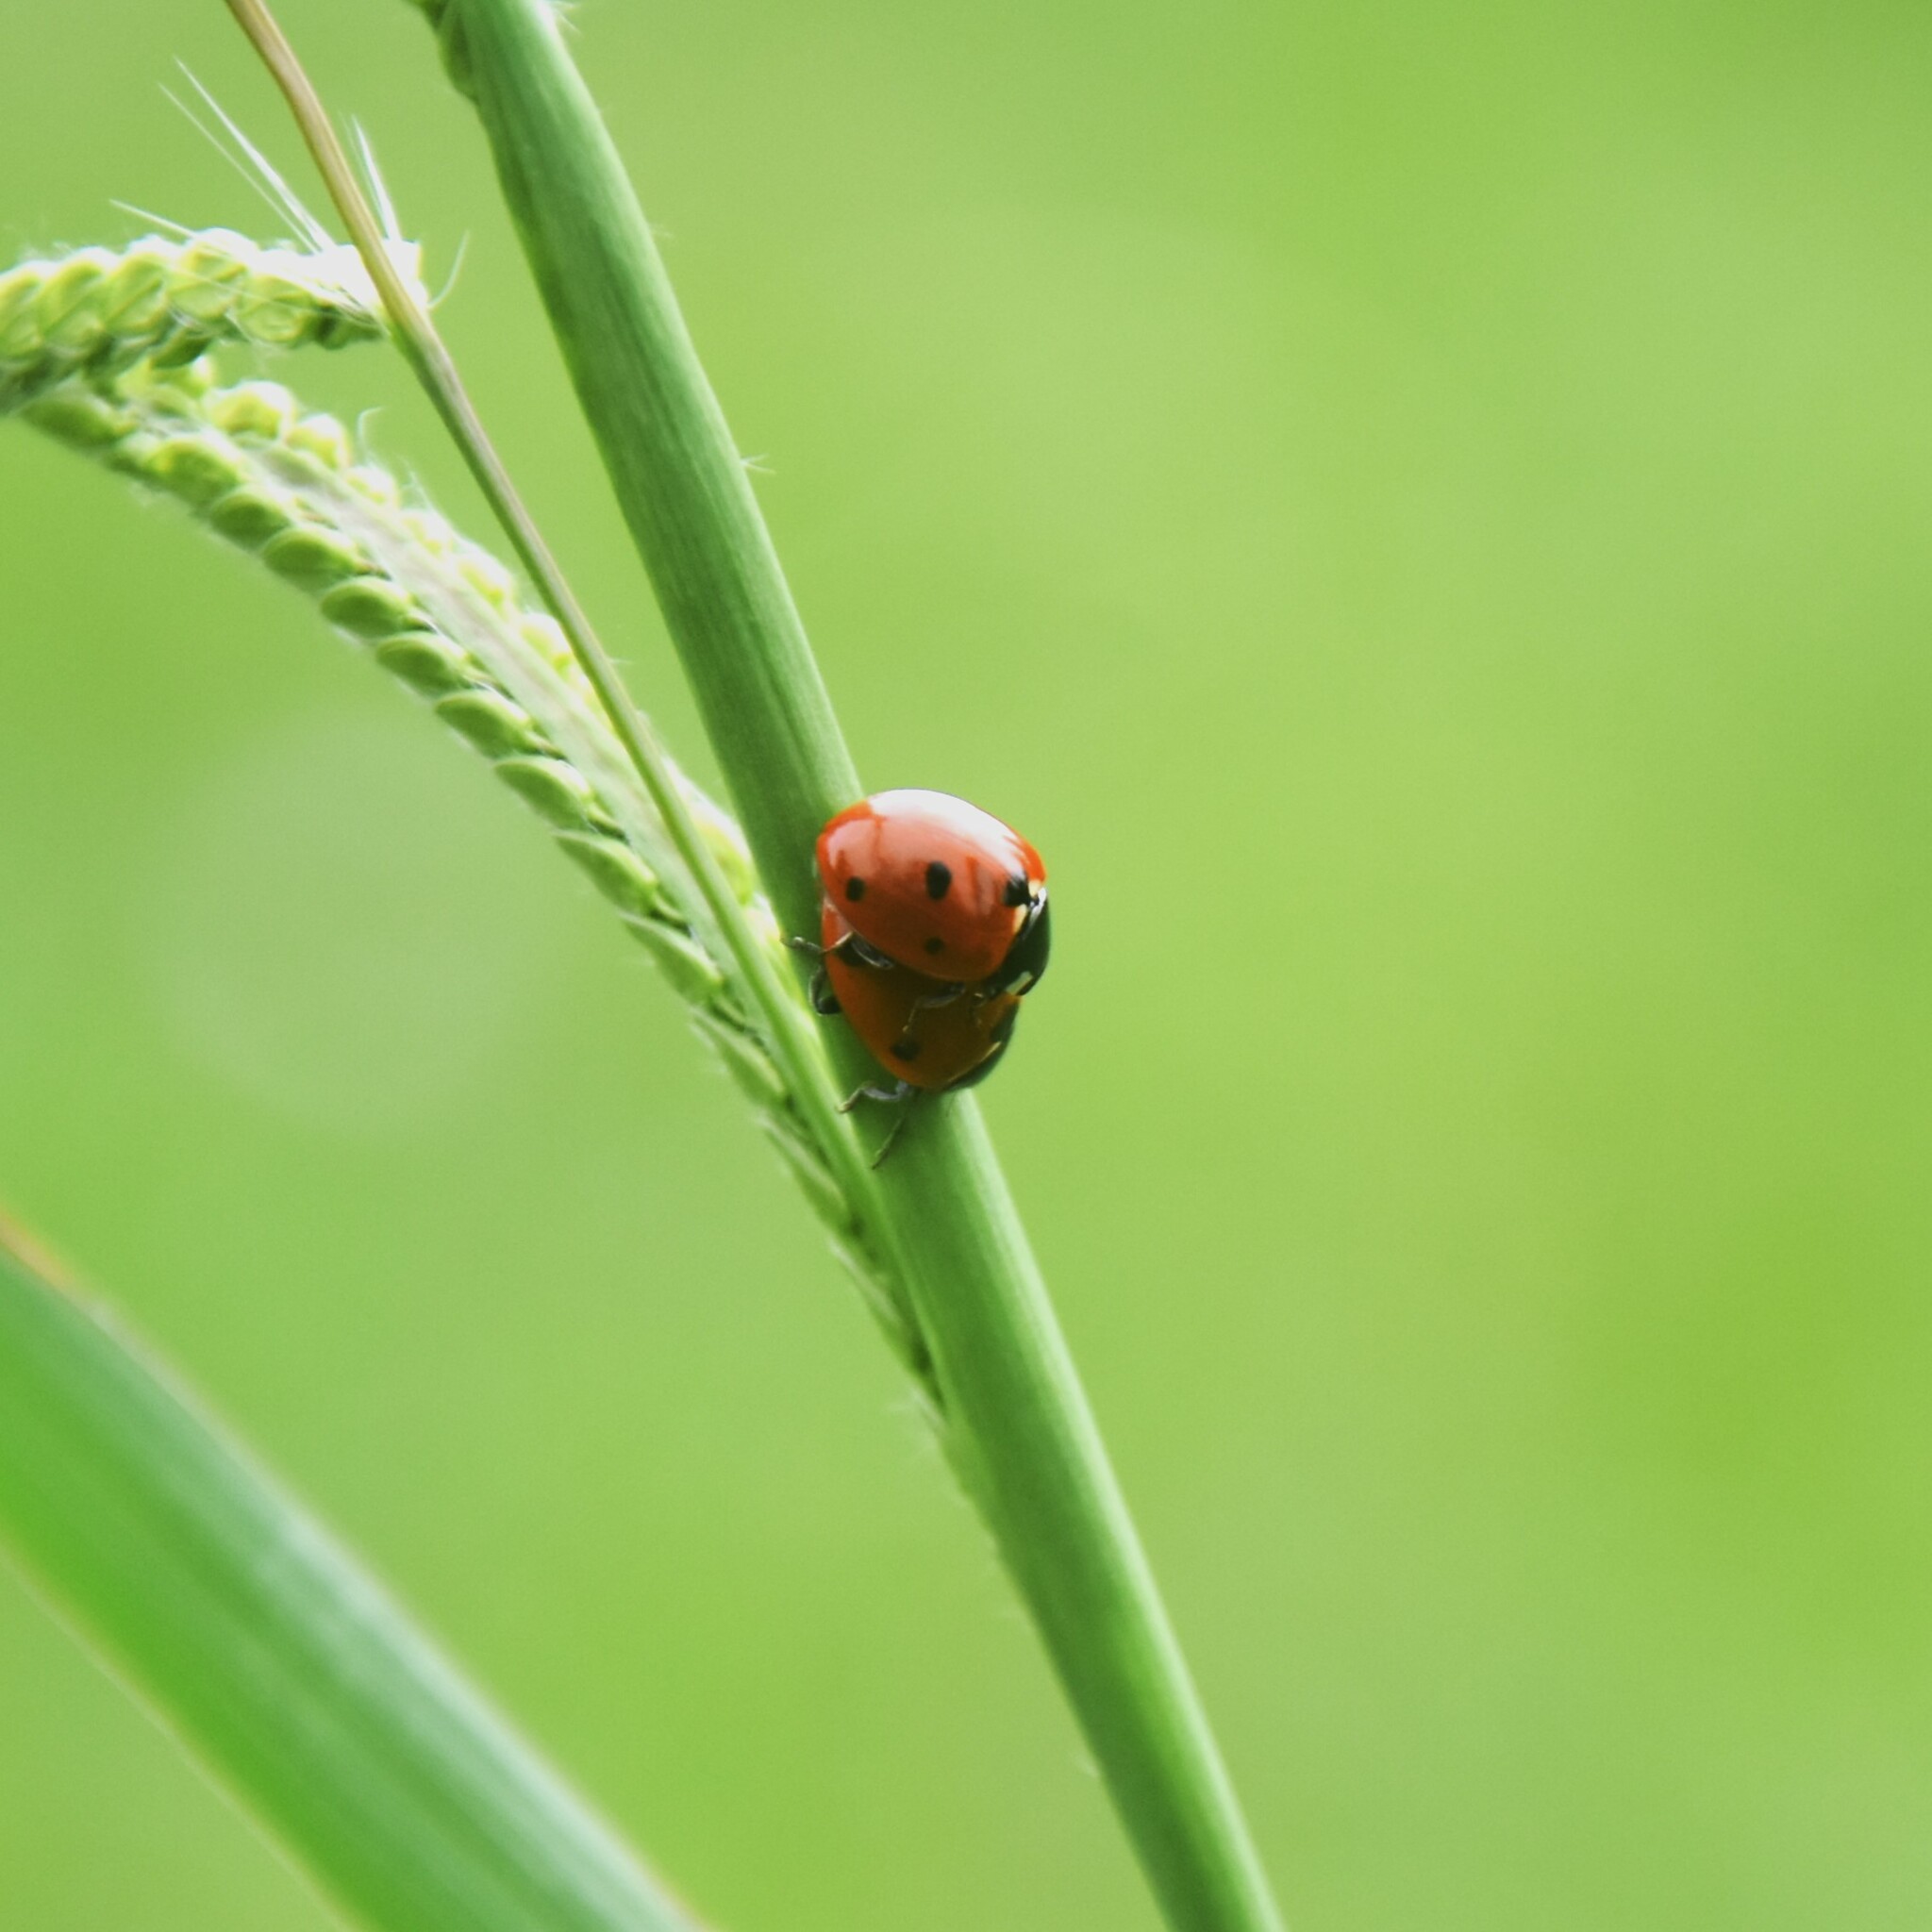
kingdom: Animalia
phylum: Arthropoda
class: Insecta
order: Coleoptera
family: Coccinellidae
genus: Coccinella
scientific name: Coccinella septempunctata
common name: Sevenspotted lady beetle
